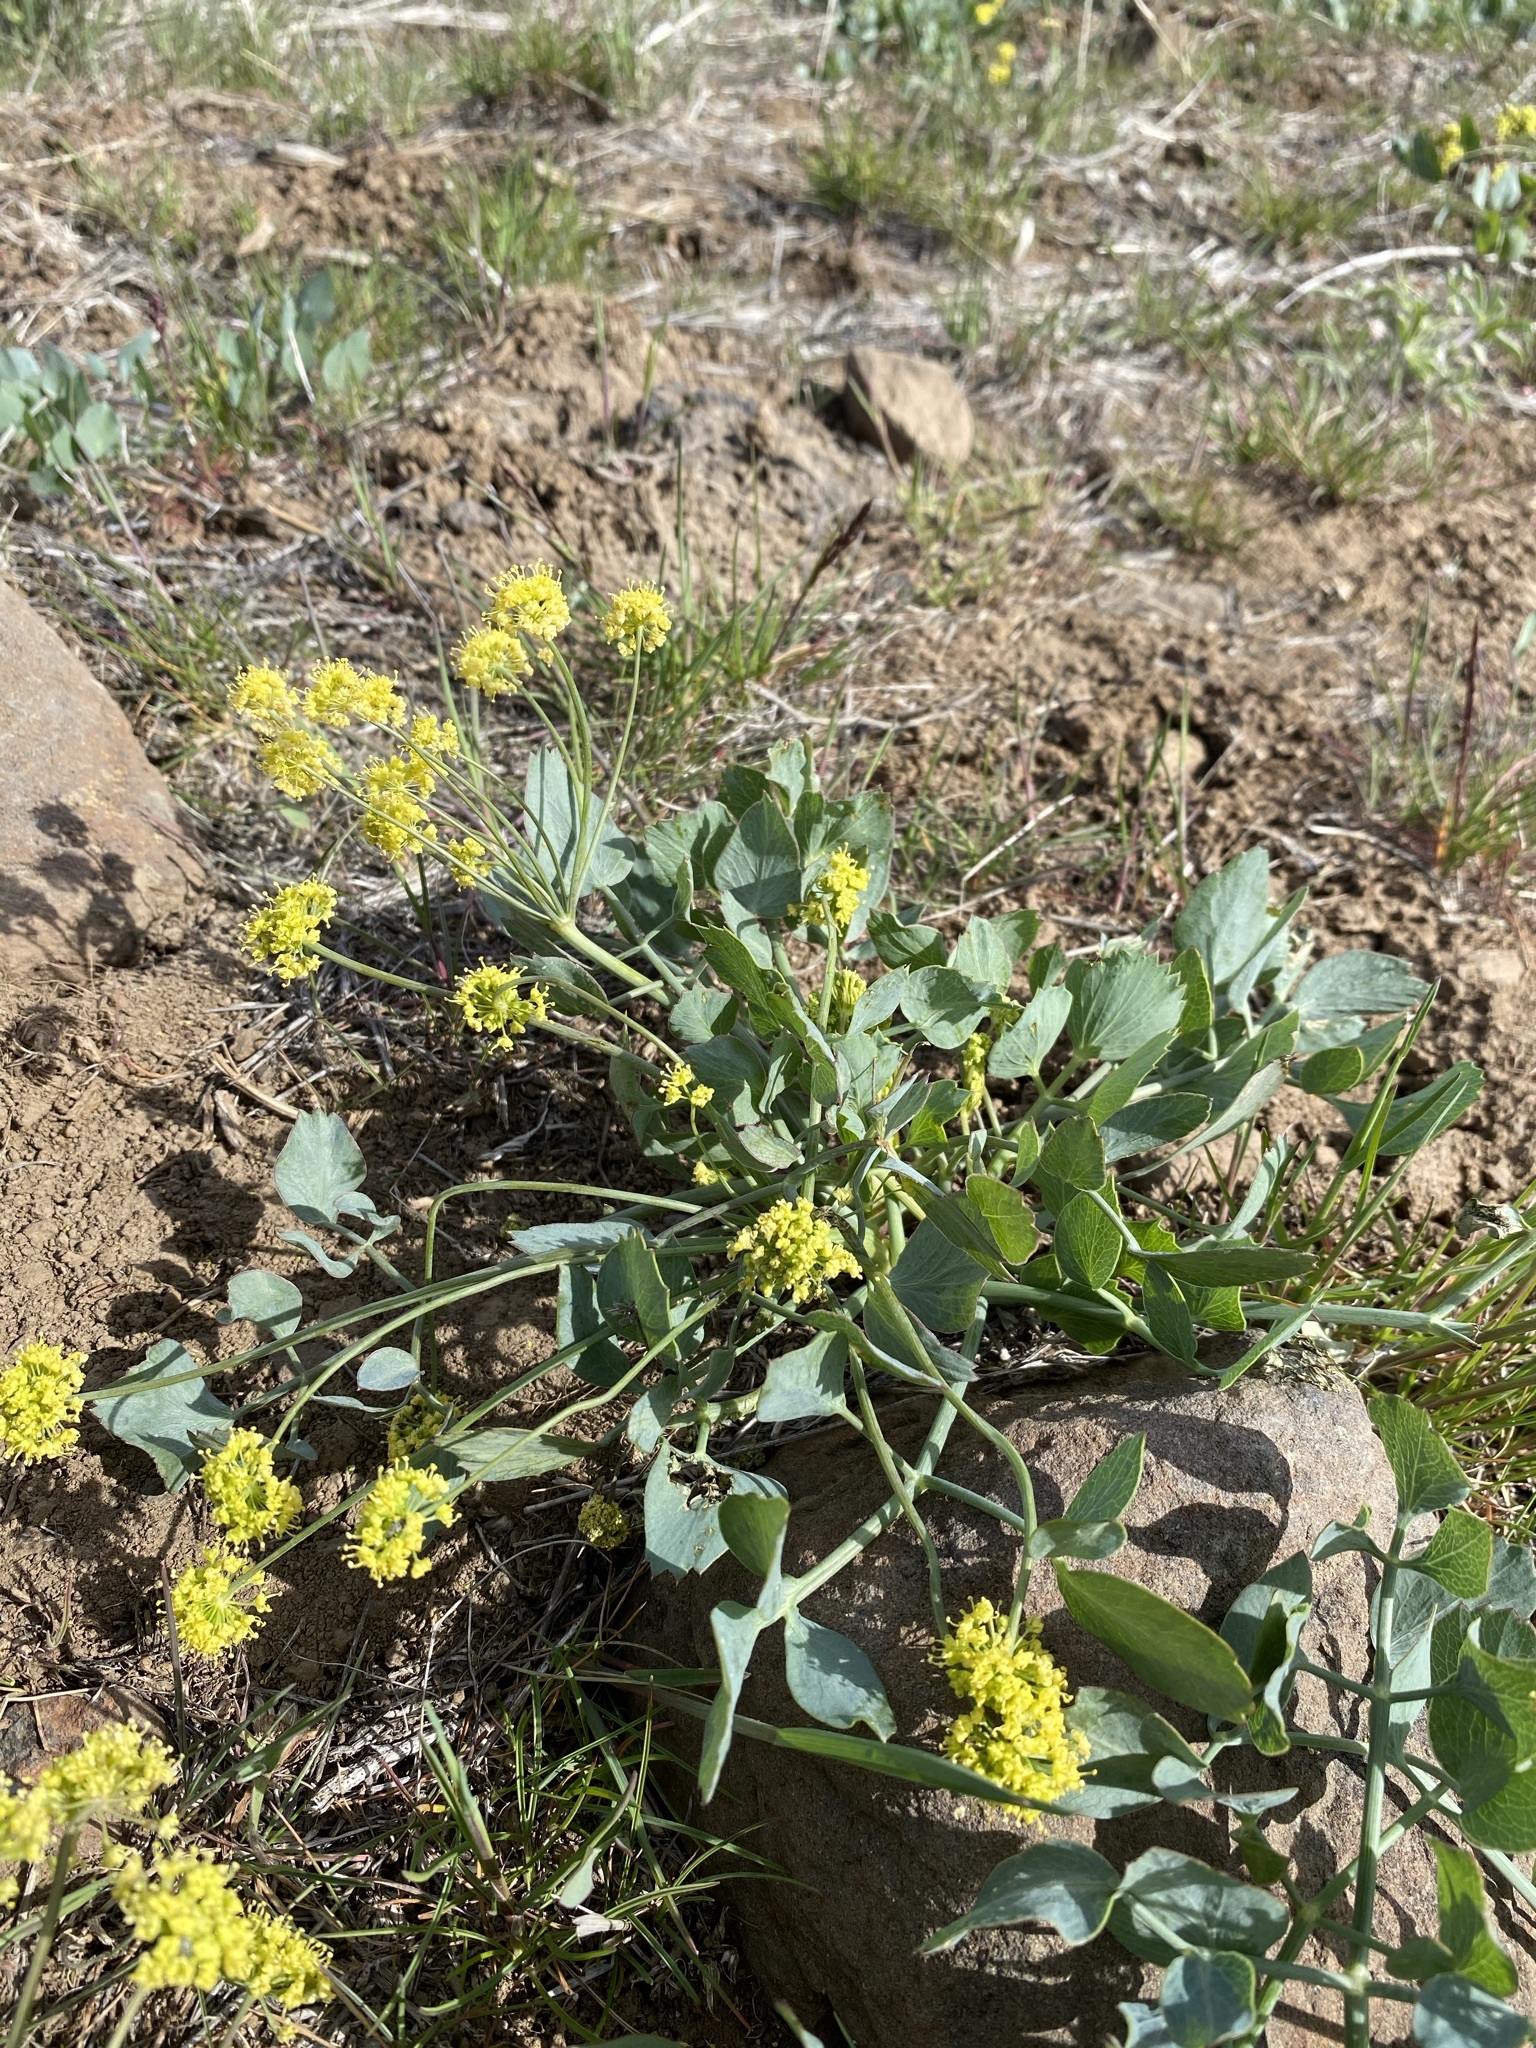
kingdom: Plantae
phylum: Tracheophyta
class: Magnoliopsida
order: Apiales
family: Apiaceae
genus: Lomatium
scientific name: Lomatium nudicaule
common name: Pestle lomatium
